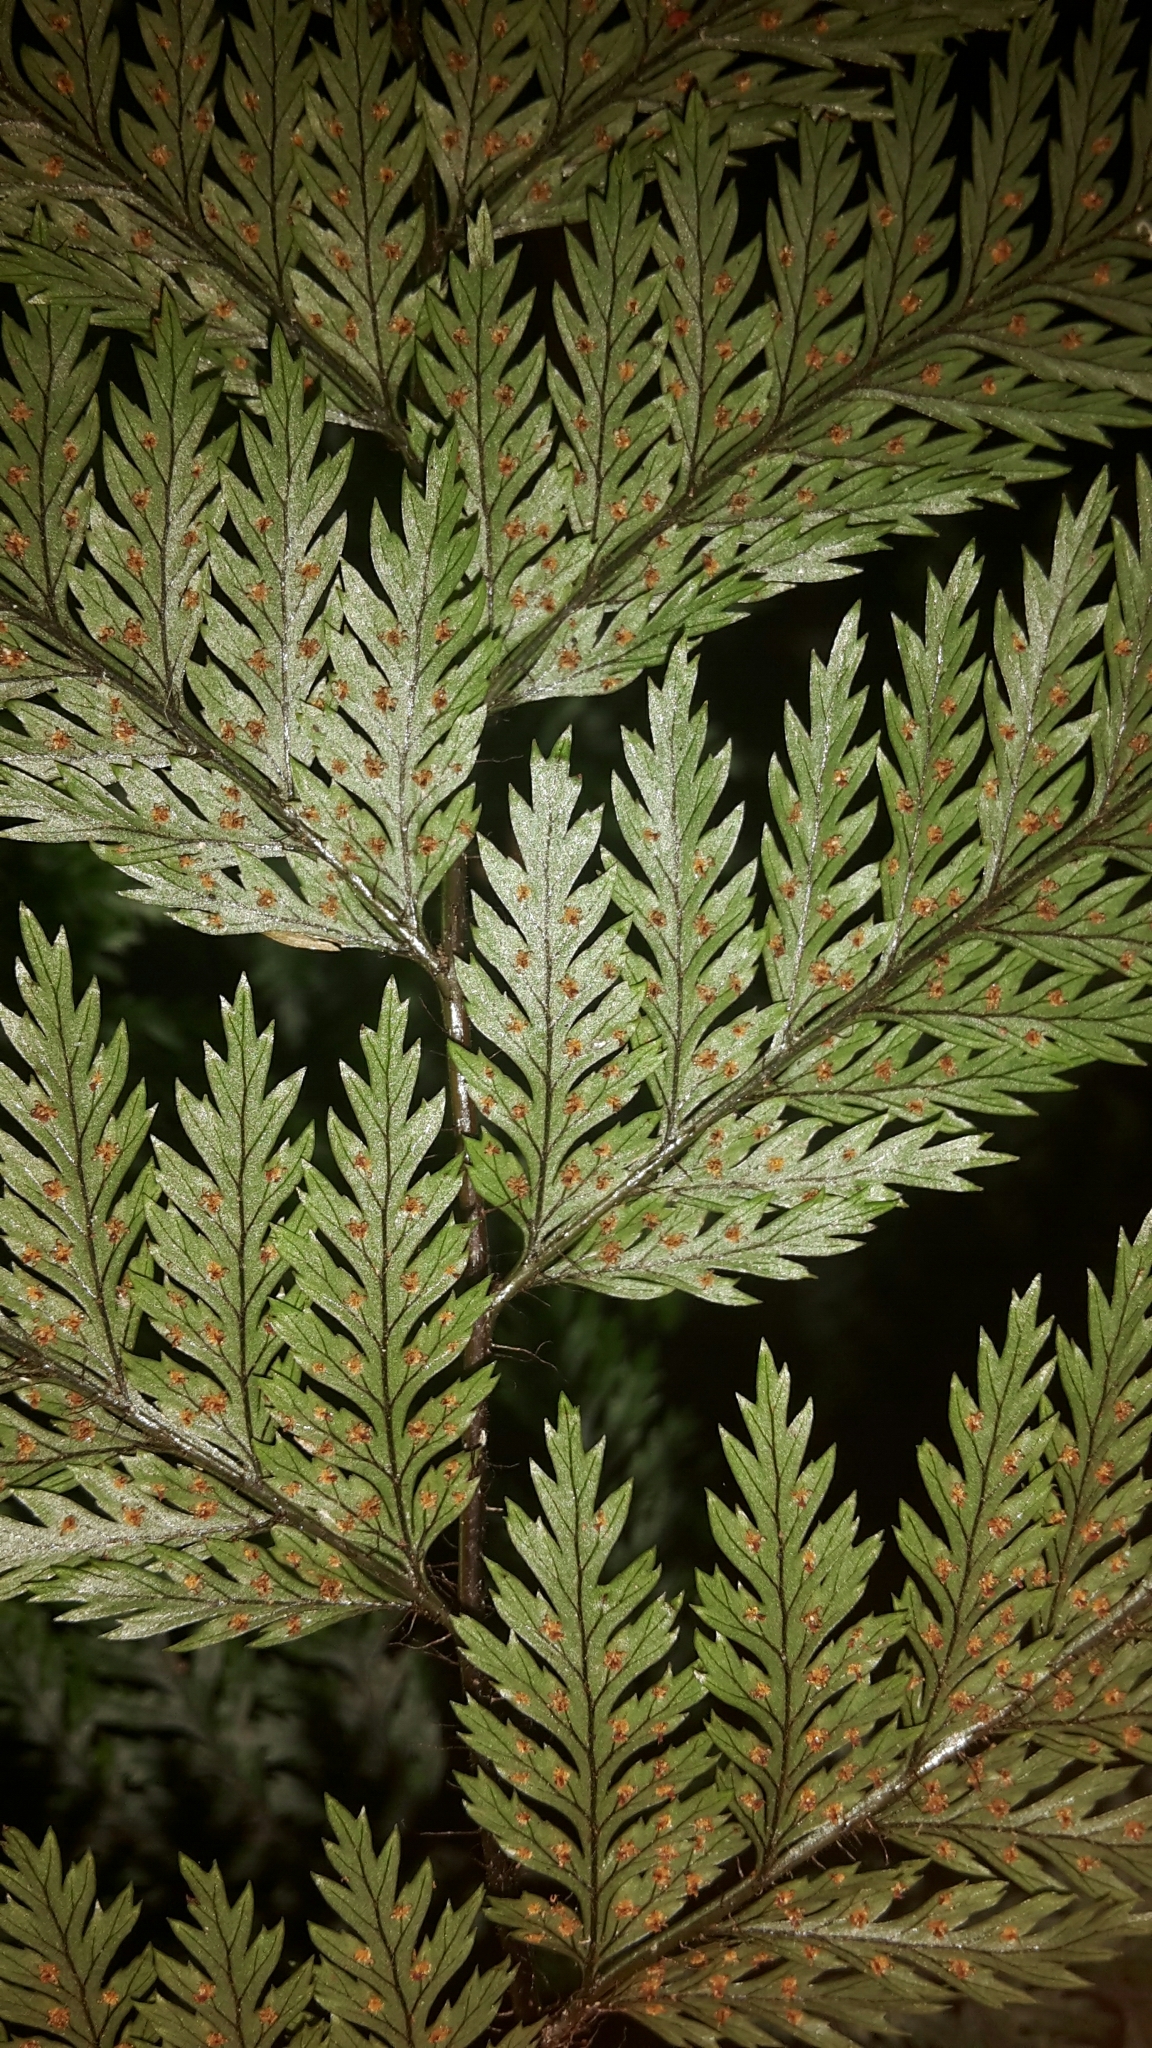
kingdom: Plantae
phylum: Tracheophyta
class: Polypodiopsida
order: Polypodiales
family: Dryopteridaceae
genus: Lastreopsis
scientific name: Lastreopsis hispida
